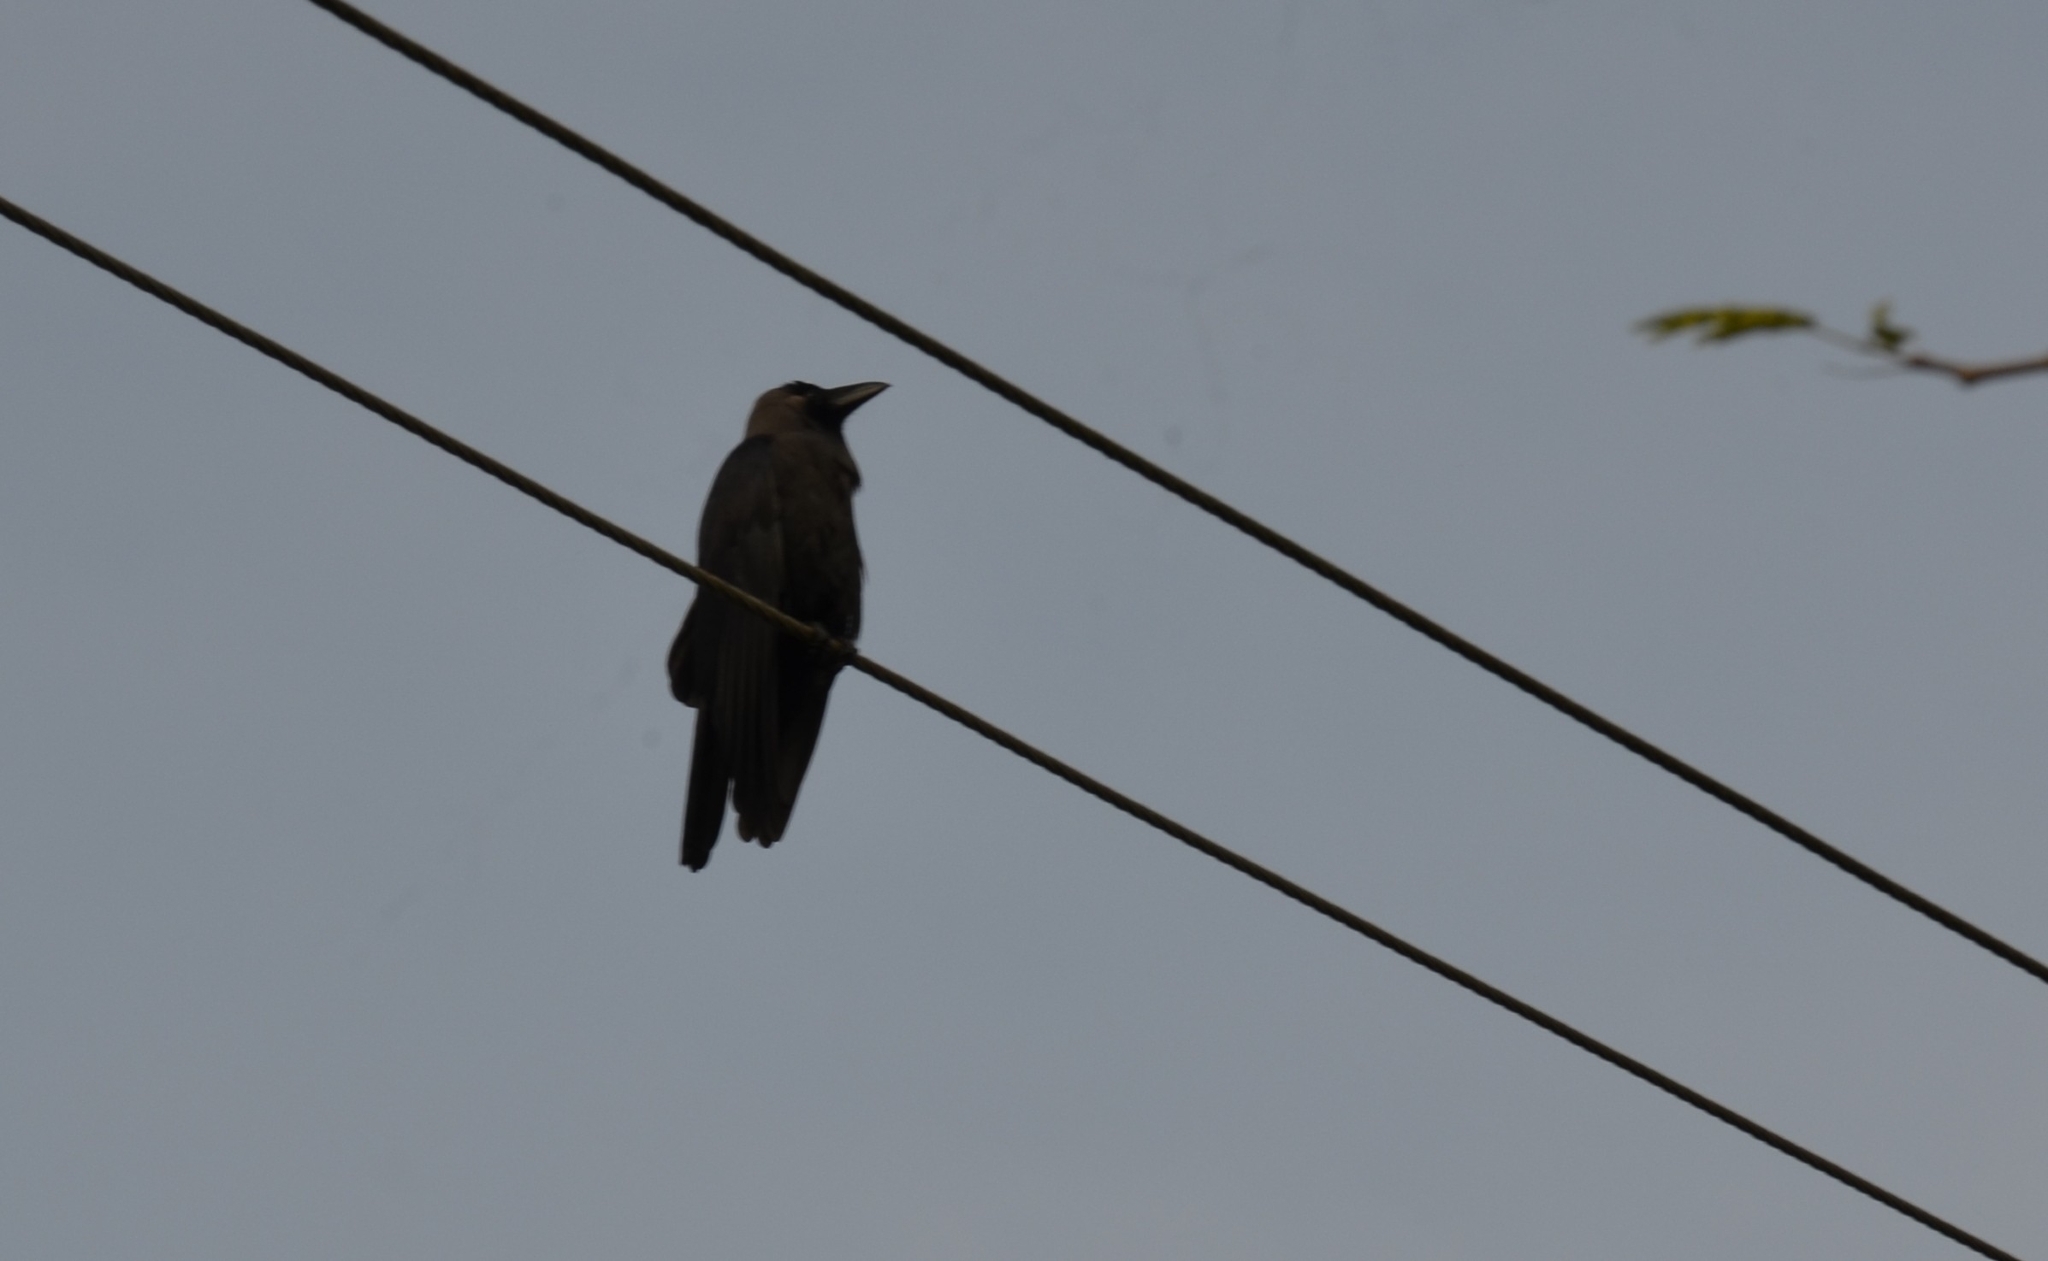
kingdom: Animalia
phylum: Chordata
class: Aves
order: Passeriformes
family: Corvidae
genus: Corvus
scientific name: Corvus splendens
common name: House crow
